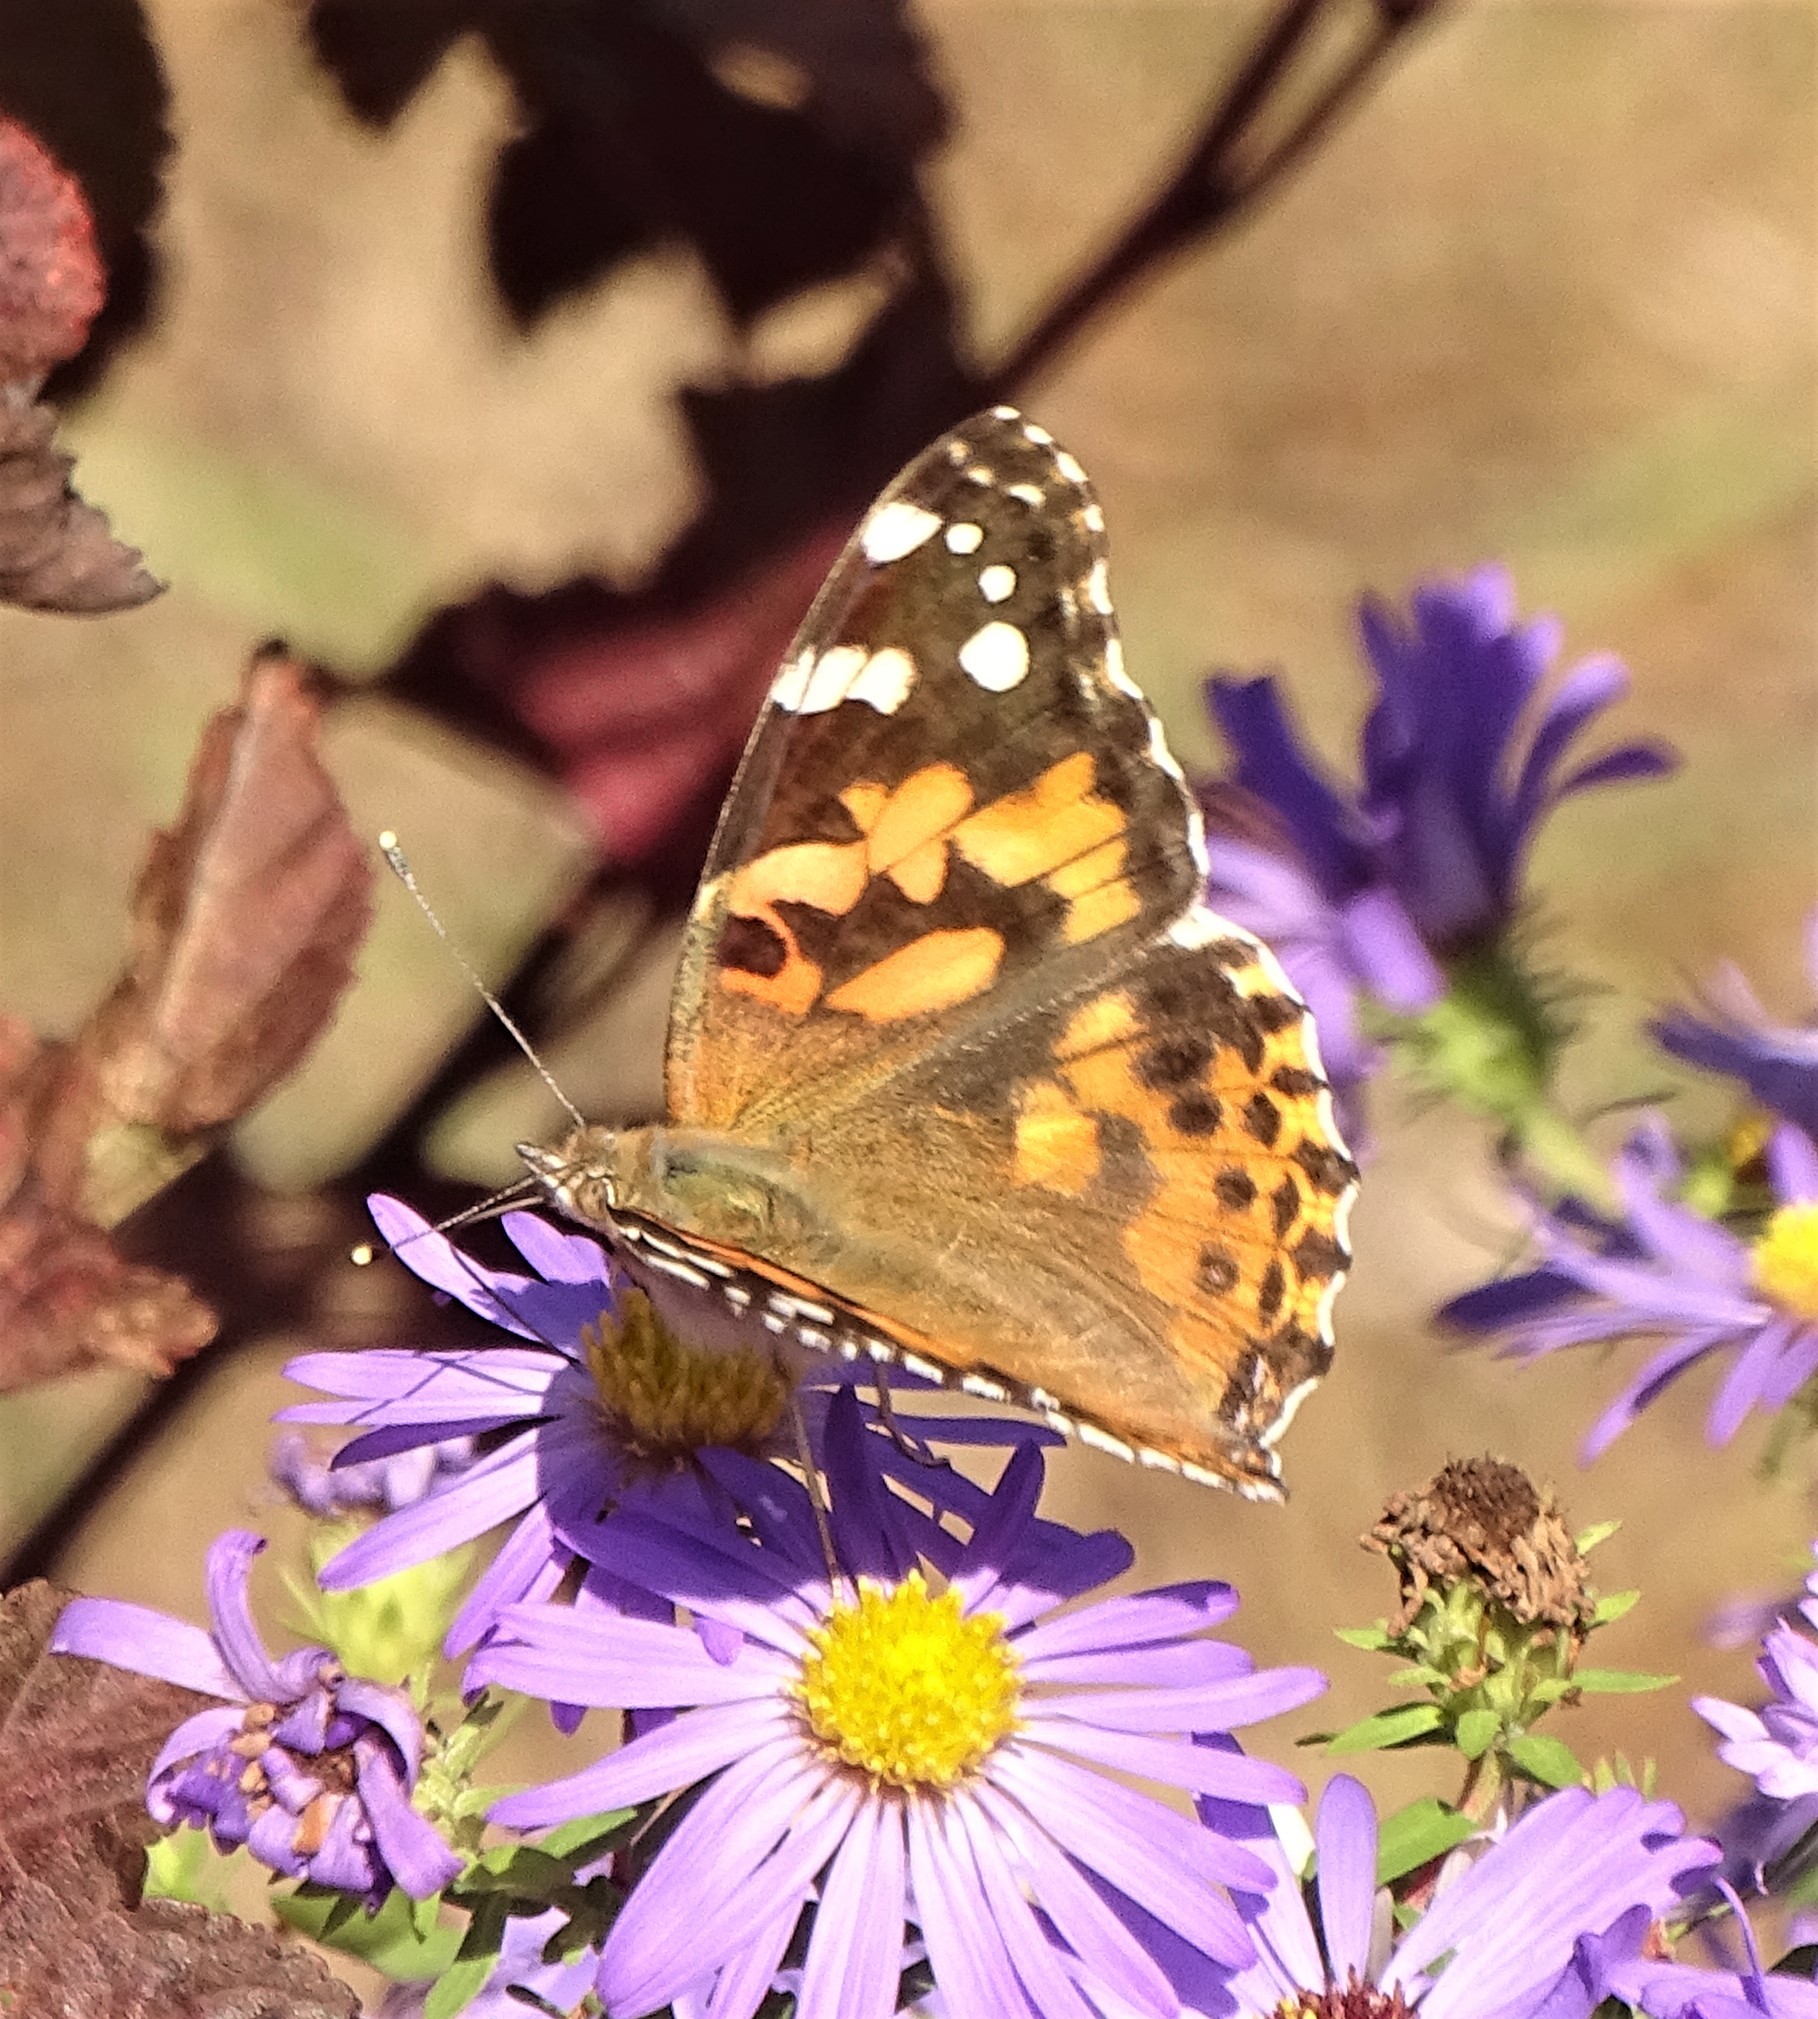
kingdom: Animalia
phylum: Arthropoda
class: Insecta
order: Lepidoptera
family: Nymphalidae
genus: Vanessa
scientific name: Vanessa cardui
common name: Painted lady
